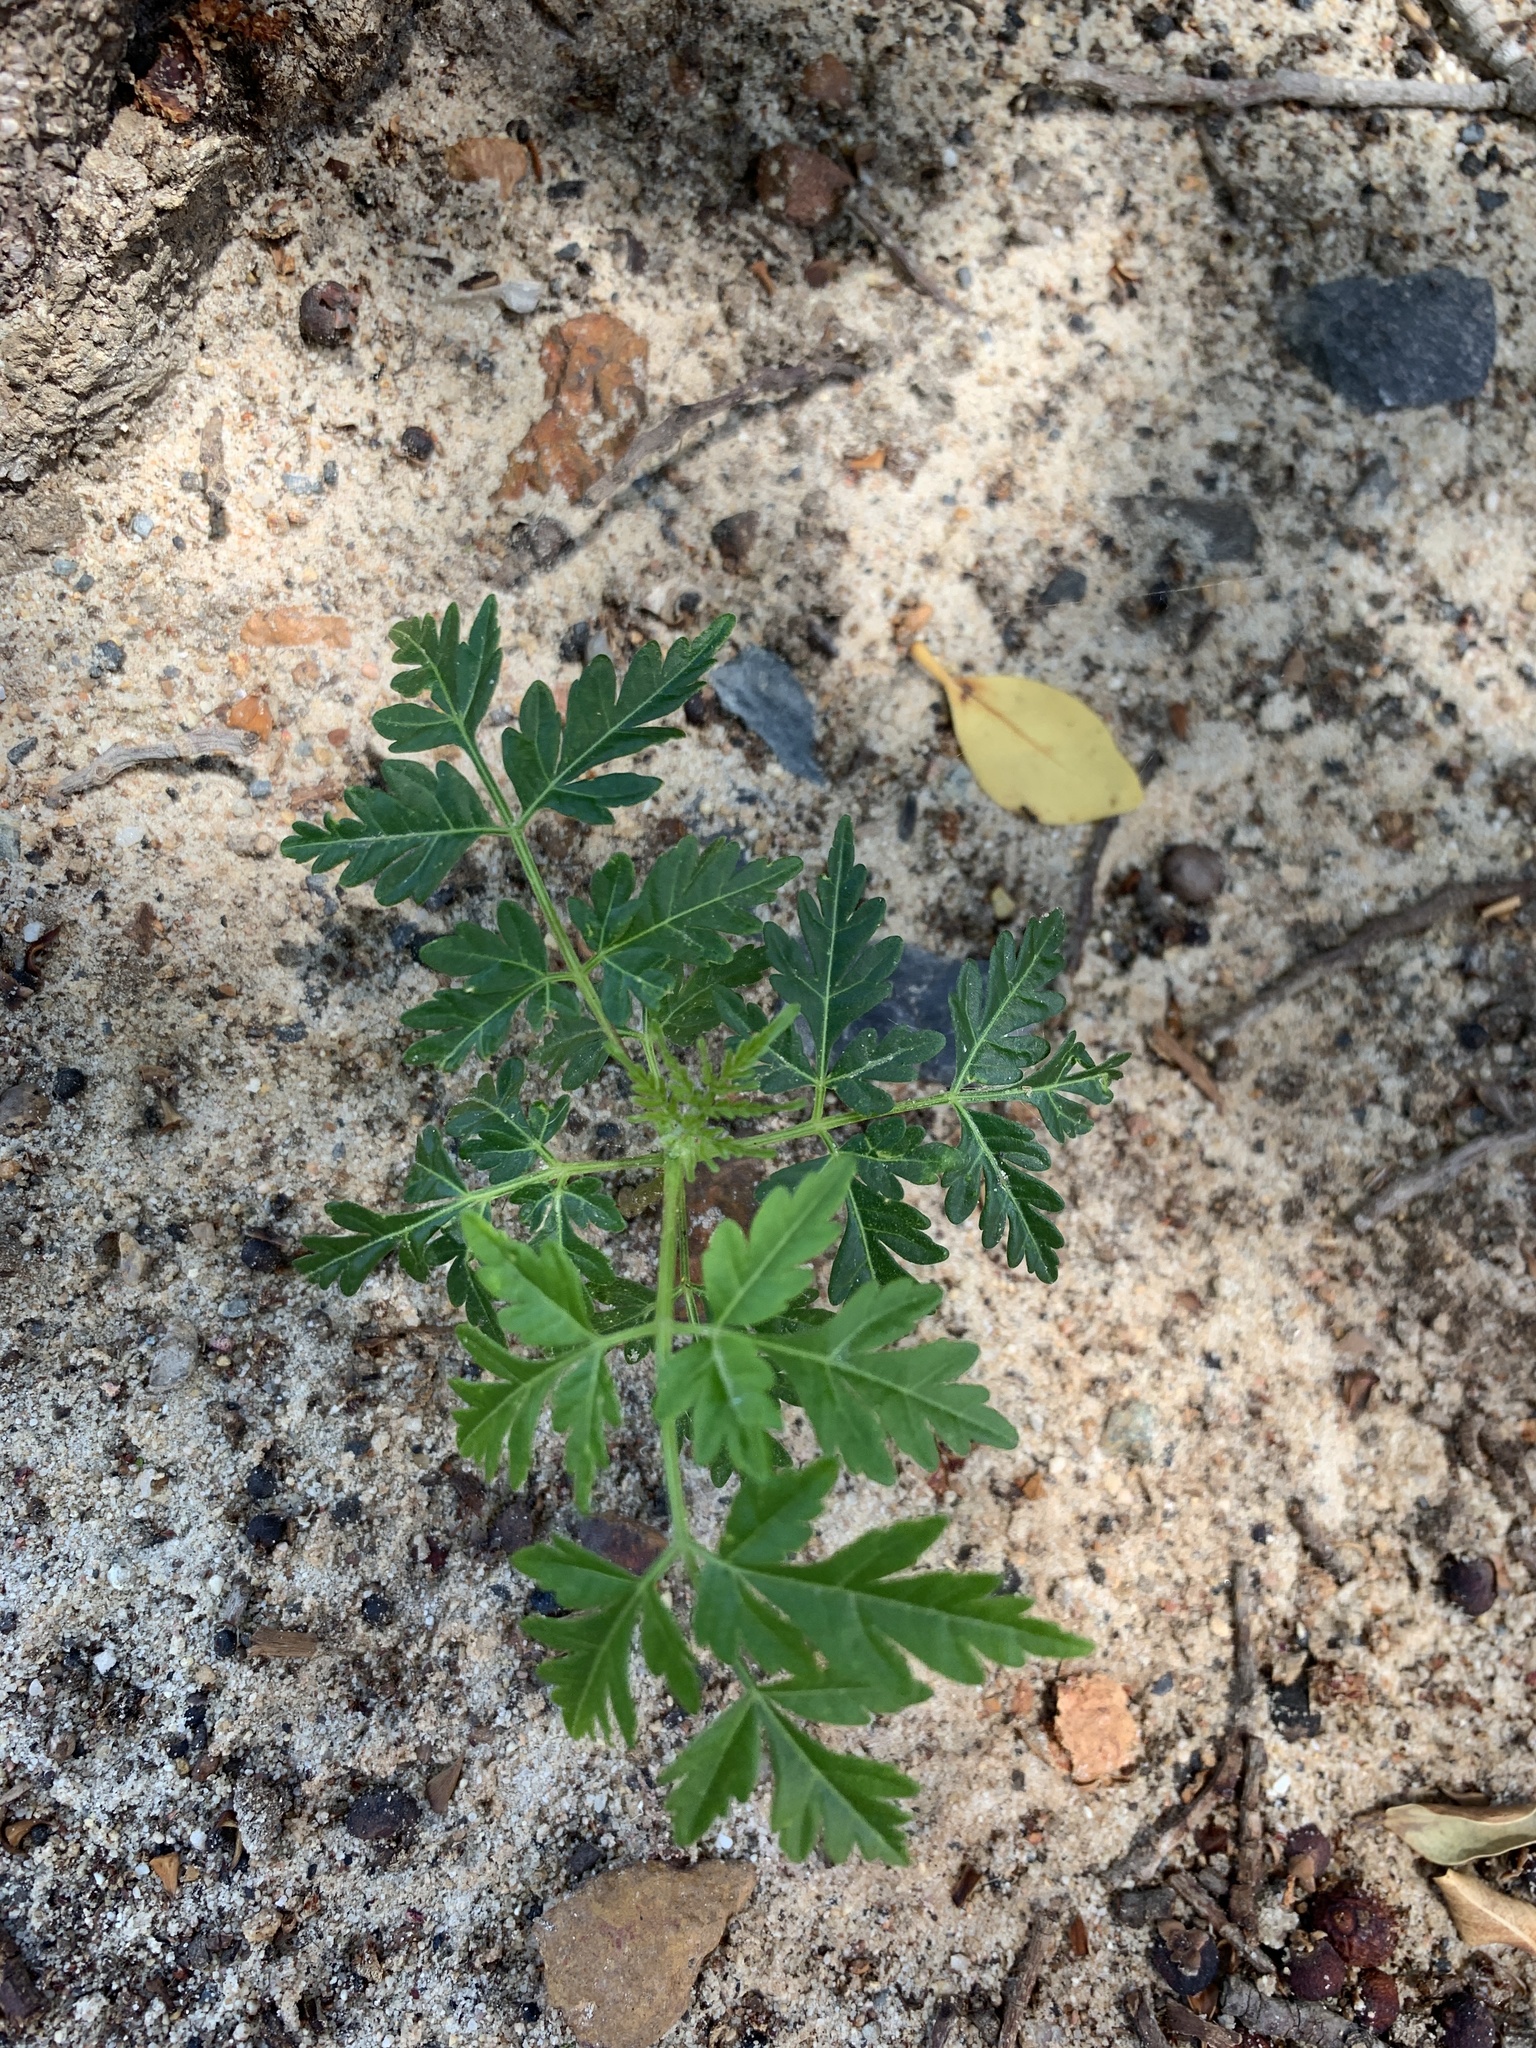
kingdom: Plantae
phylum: Tracheophyta
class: Magnoliopsida
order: Sapindales
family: Meliaceae
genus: Melia
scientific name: Melia azedarach
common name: Chinaberrytree
